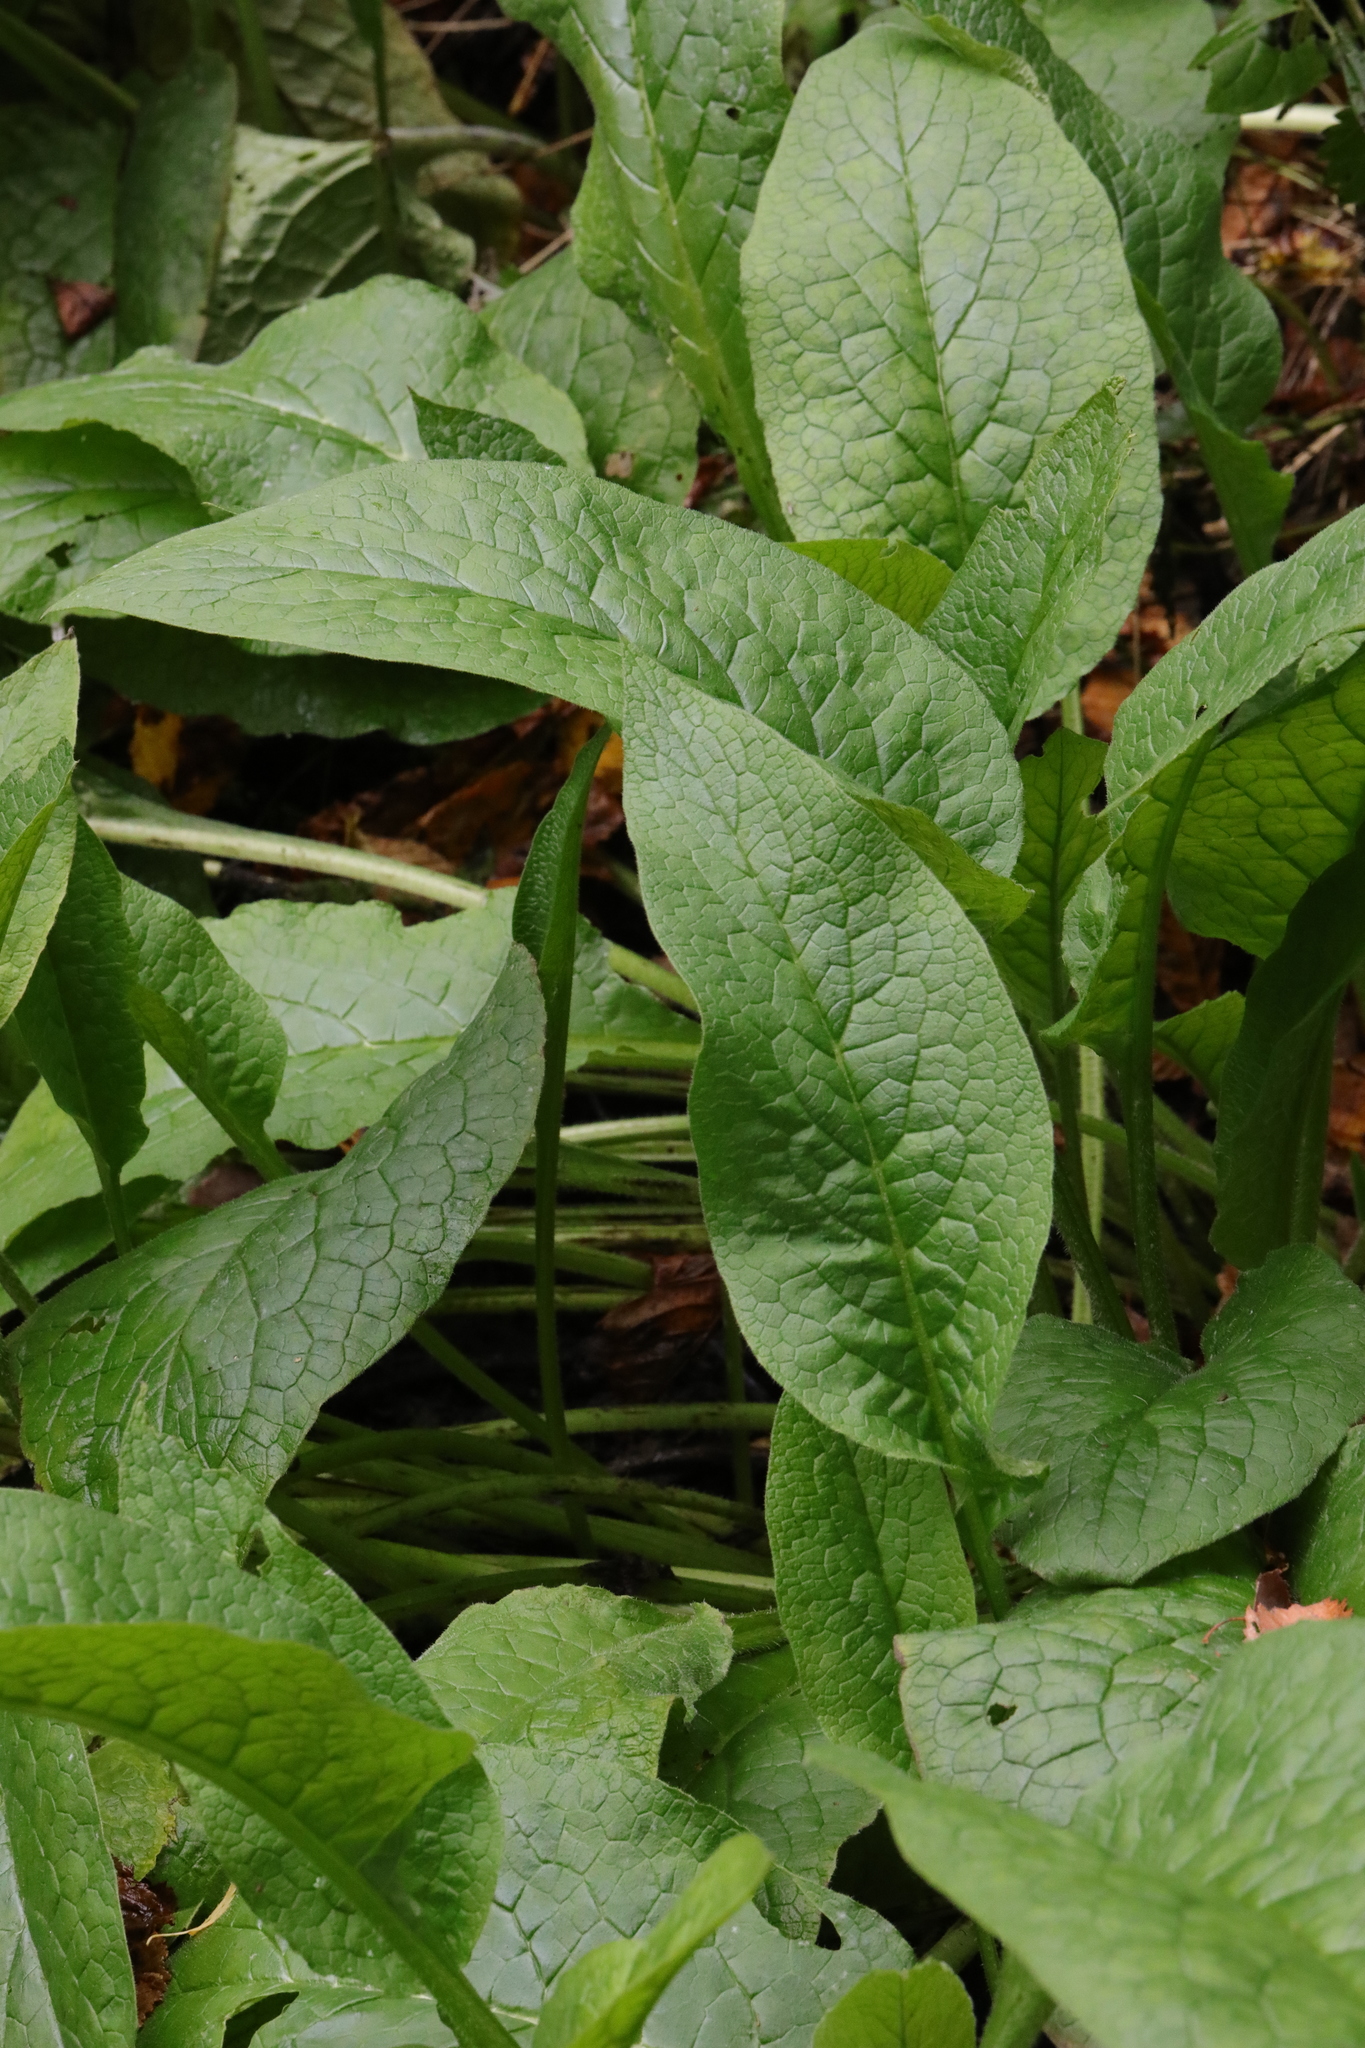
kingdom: Plantae
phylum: Tracheophyta
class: Magnoliopsida
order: Boraginales
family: Boraginaceae
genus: Symphytum
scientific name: Symphytum officinale
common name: Common comfrey
